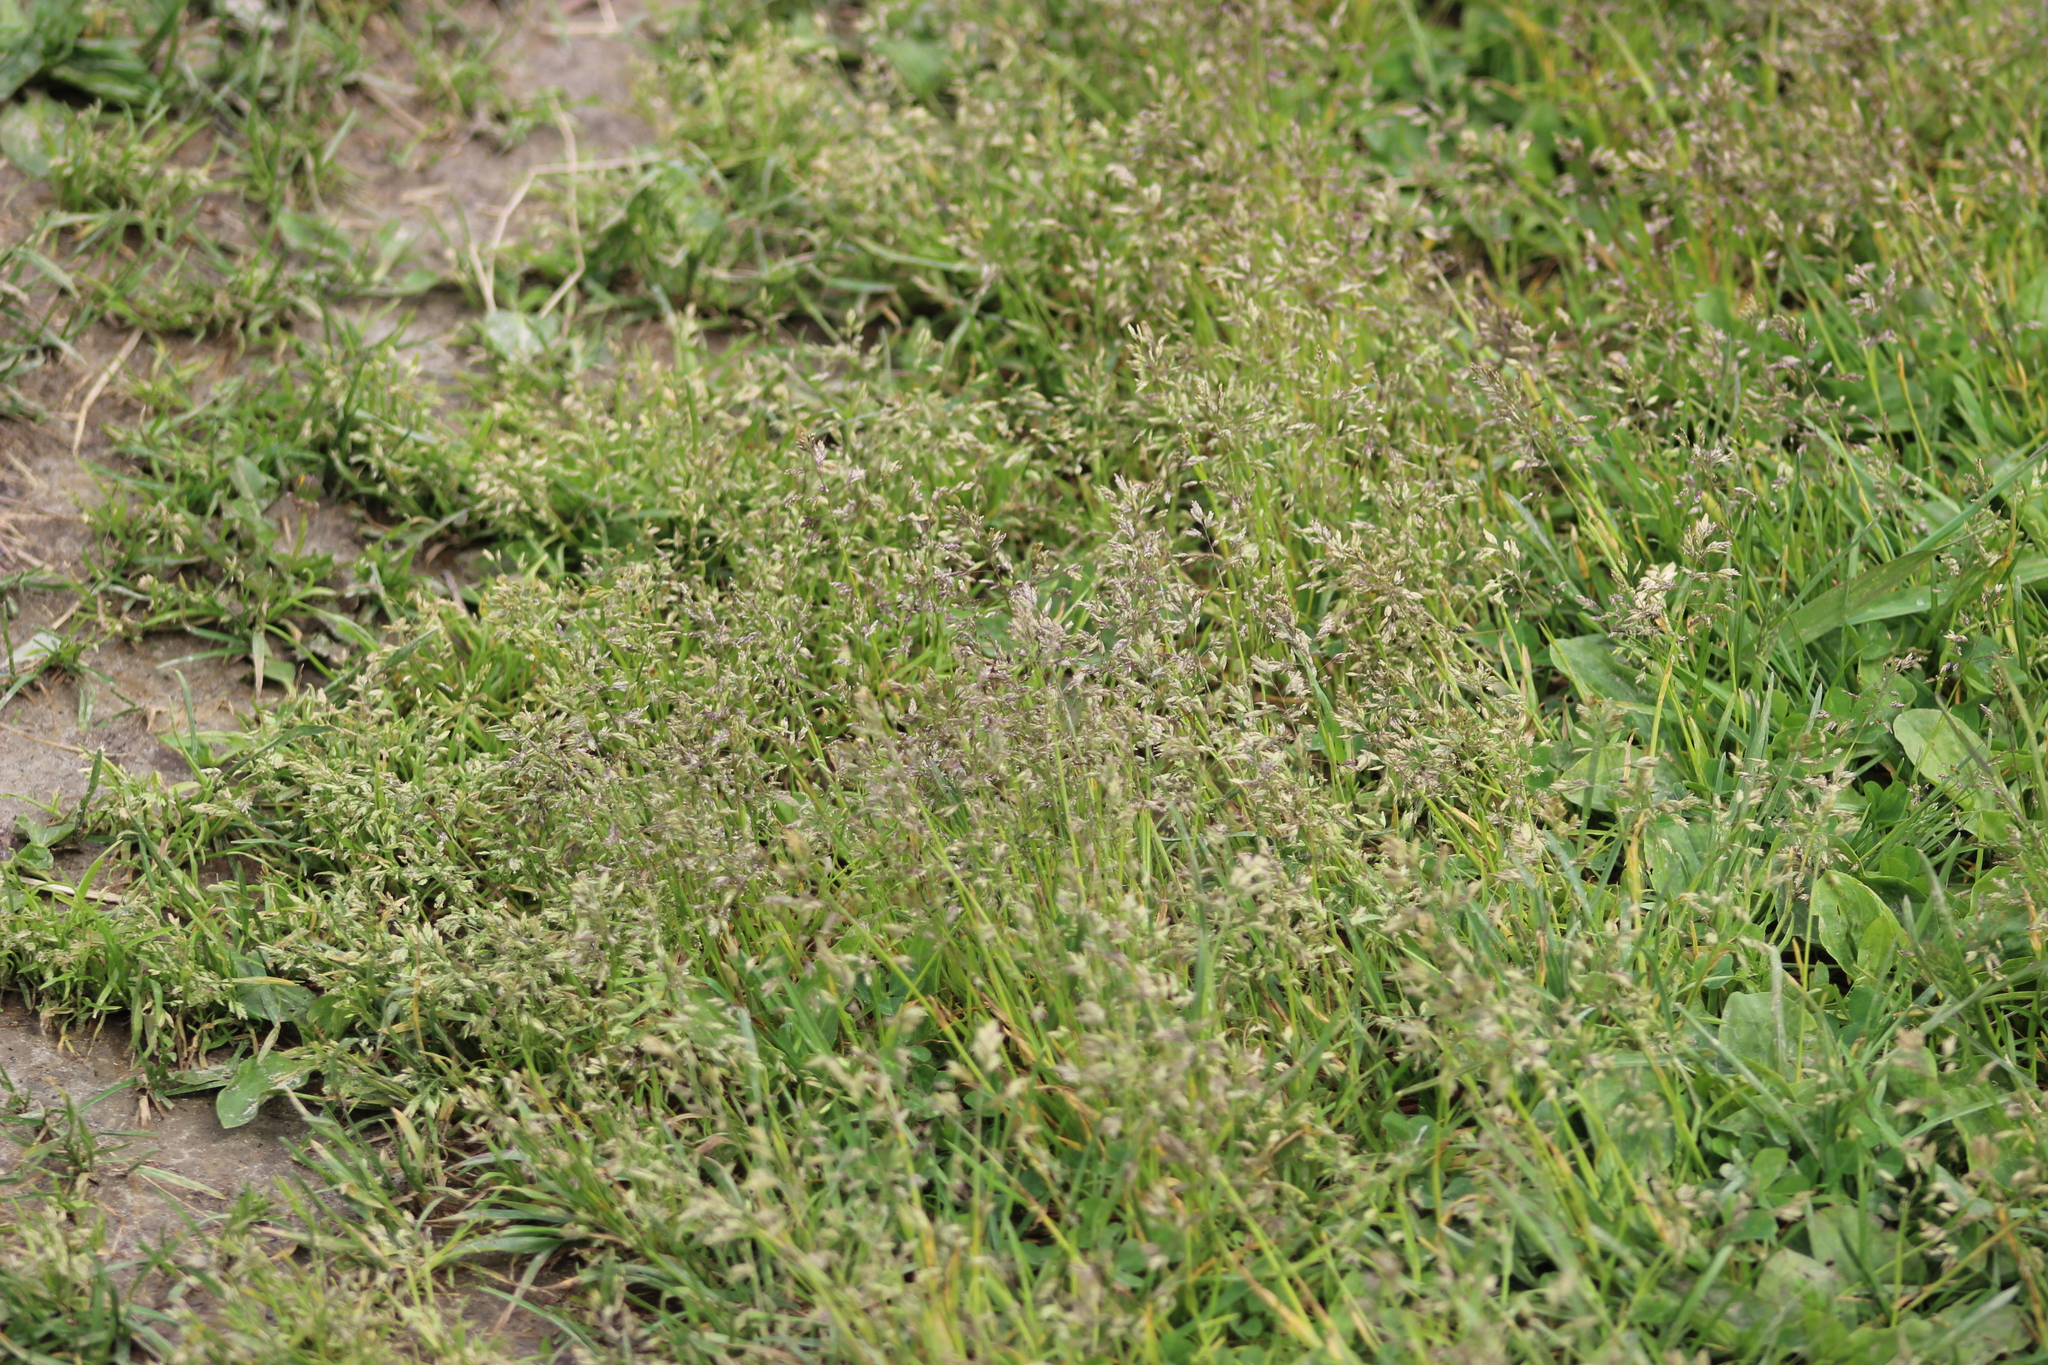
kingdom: Plantae
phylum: Tracheophyta
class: Liliopsida
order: Poales
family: Poaceae
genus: Poa
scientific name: Poa annua
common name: Annual bluegrass
